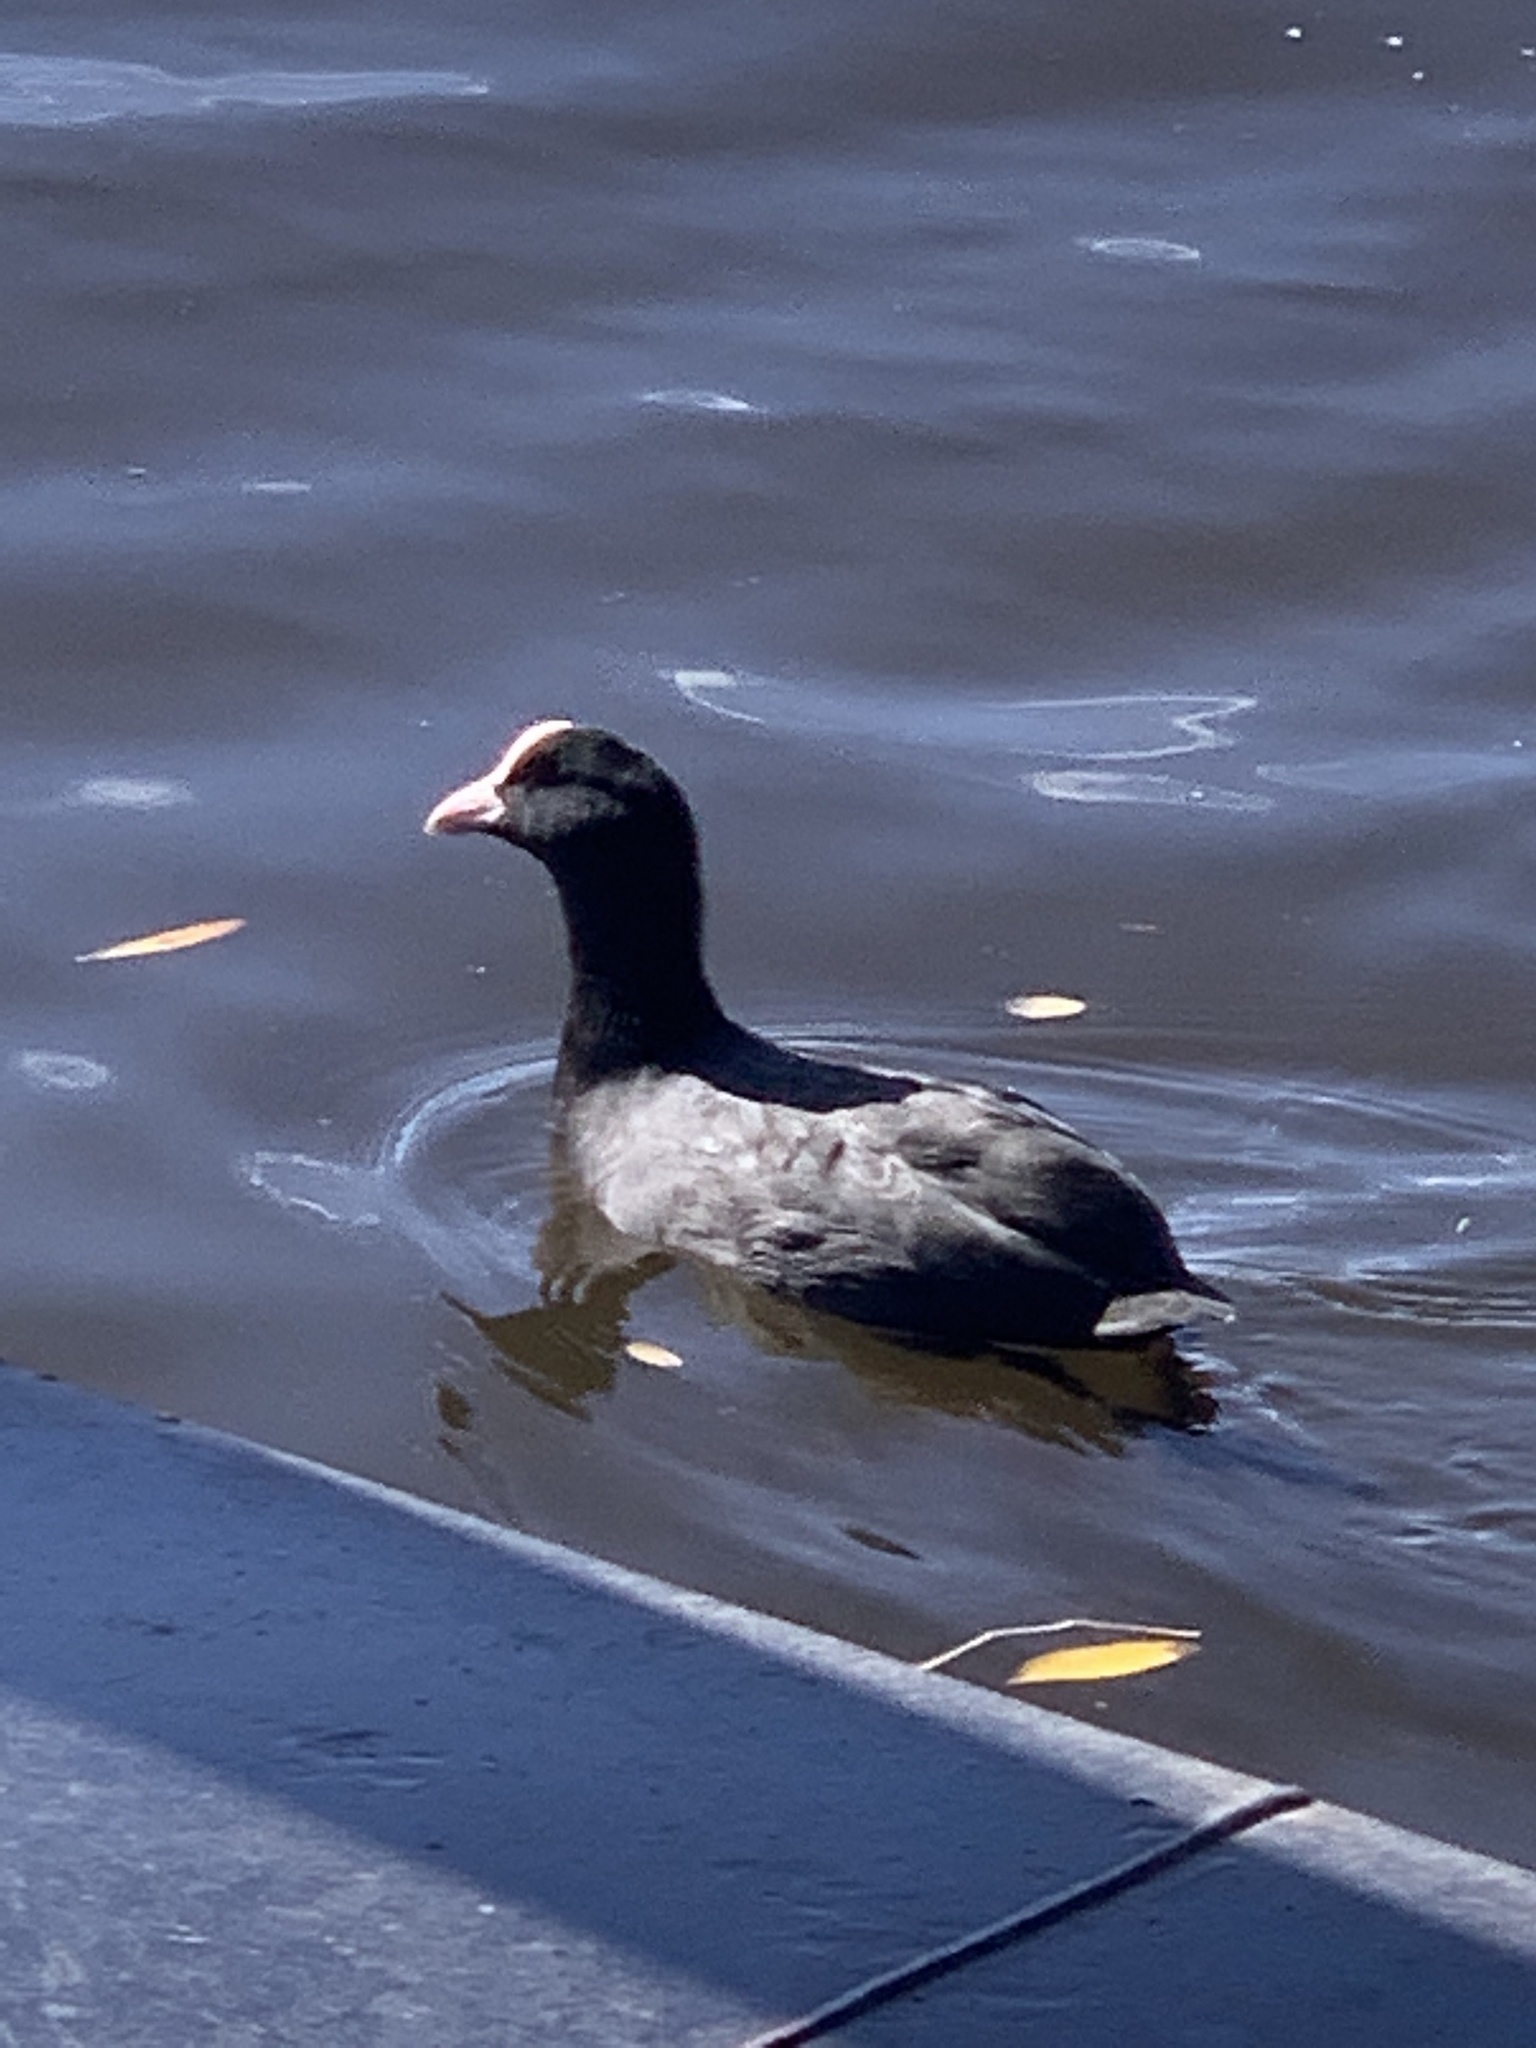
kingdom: Animalia
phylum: Chordata
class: Aves
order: Gruiformes
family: Rallidae
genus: Fulica
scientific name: Fulica atra
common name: Eurasian coot
